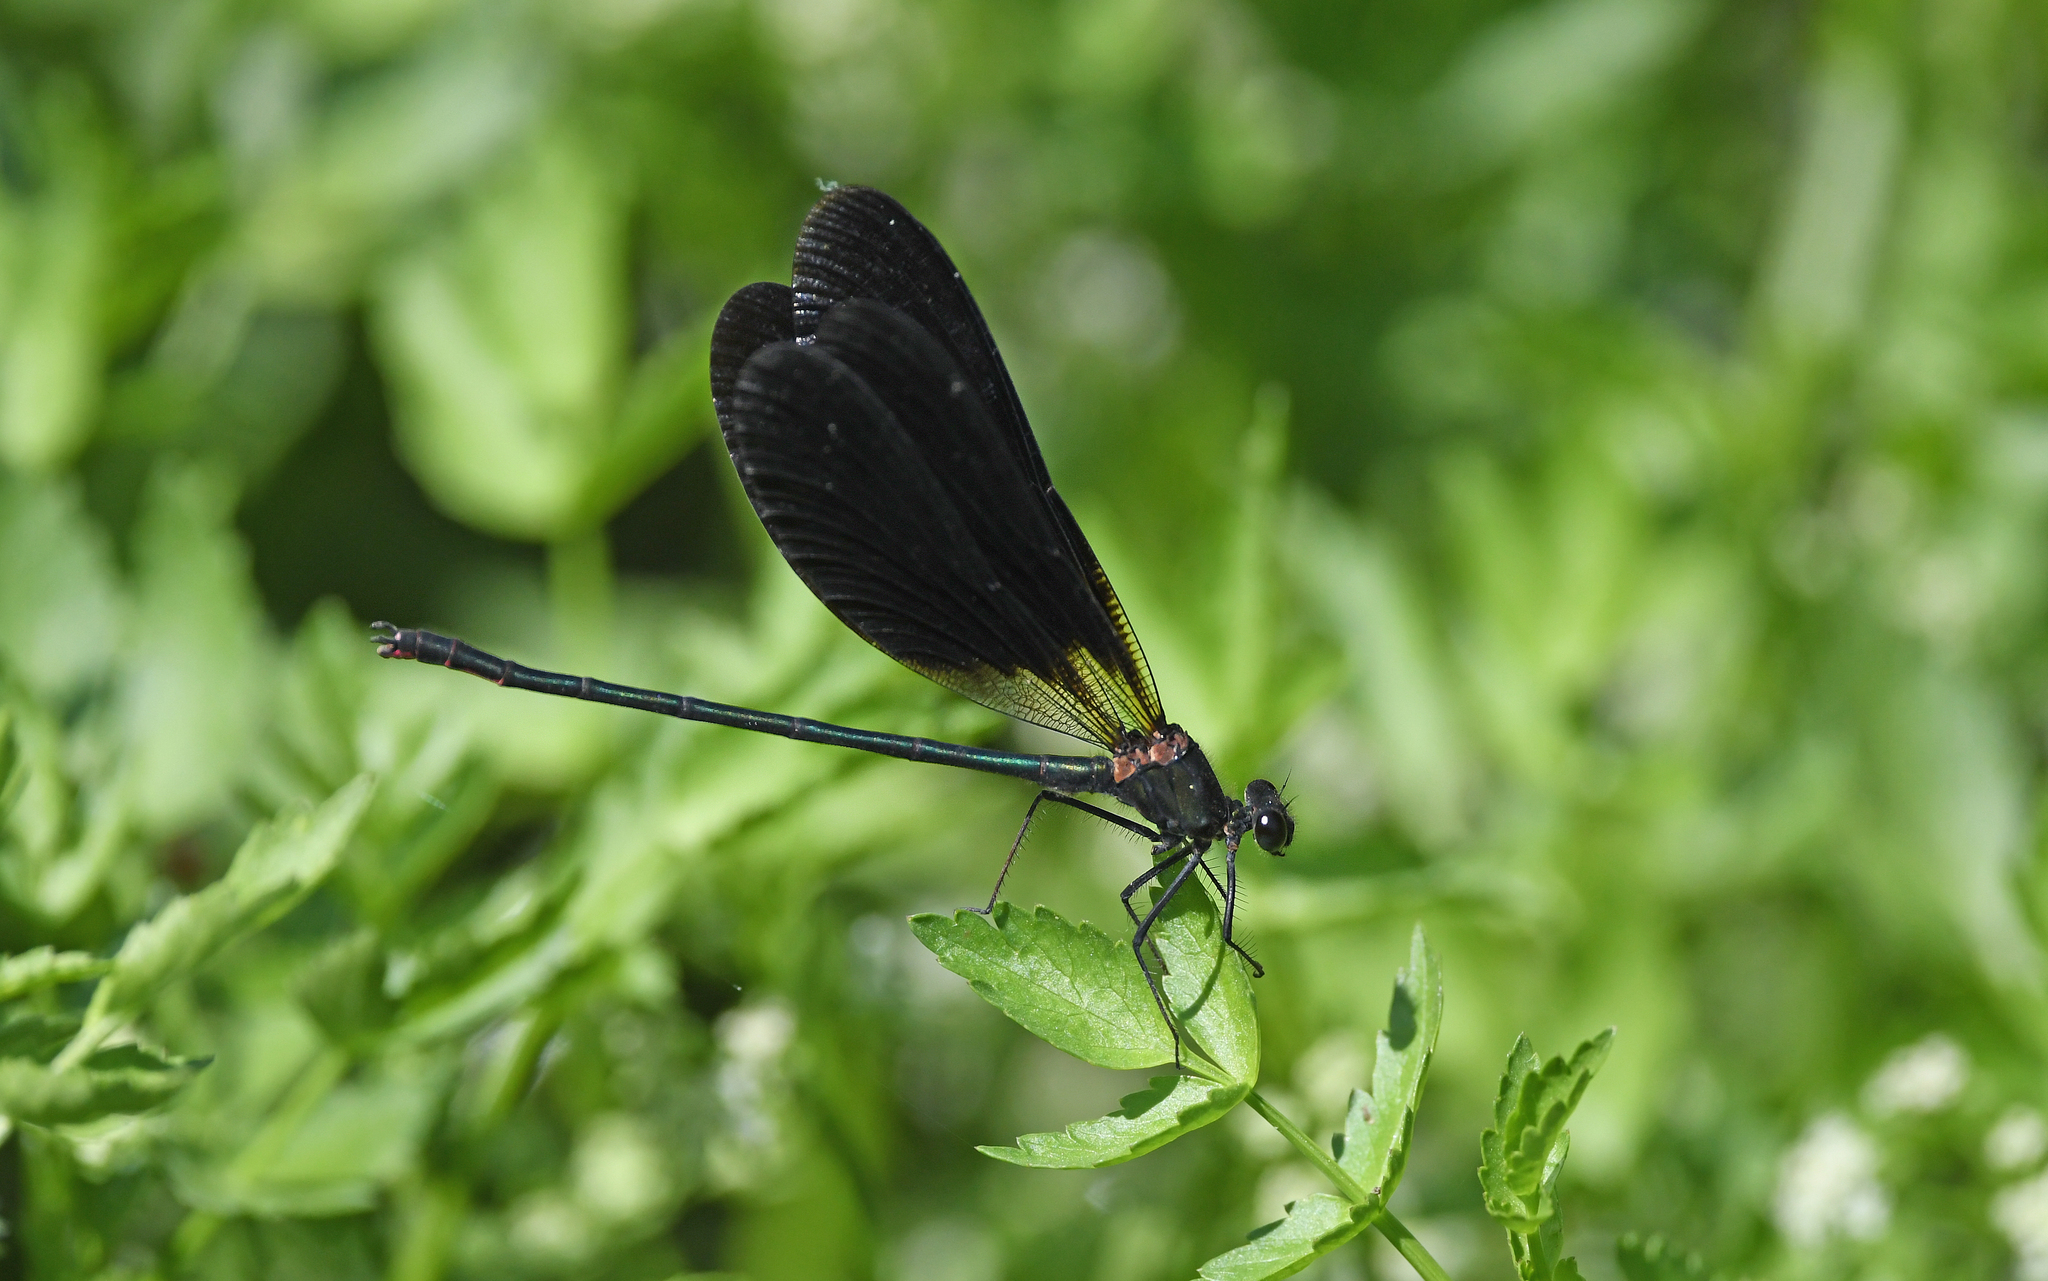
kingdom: Animalia
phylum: Arthropoda
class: Insecta
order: Odonata
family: Calopterygidae
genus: Calopteryx
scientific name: Calopteryx haemorrhoidalis
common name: Copper demoiselle
